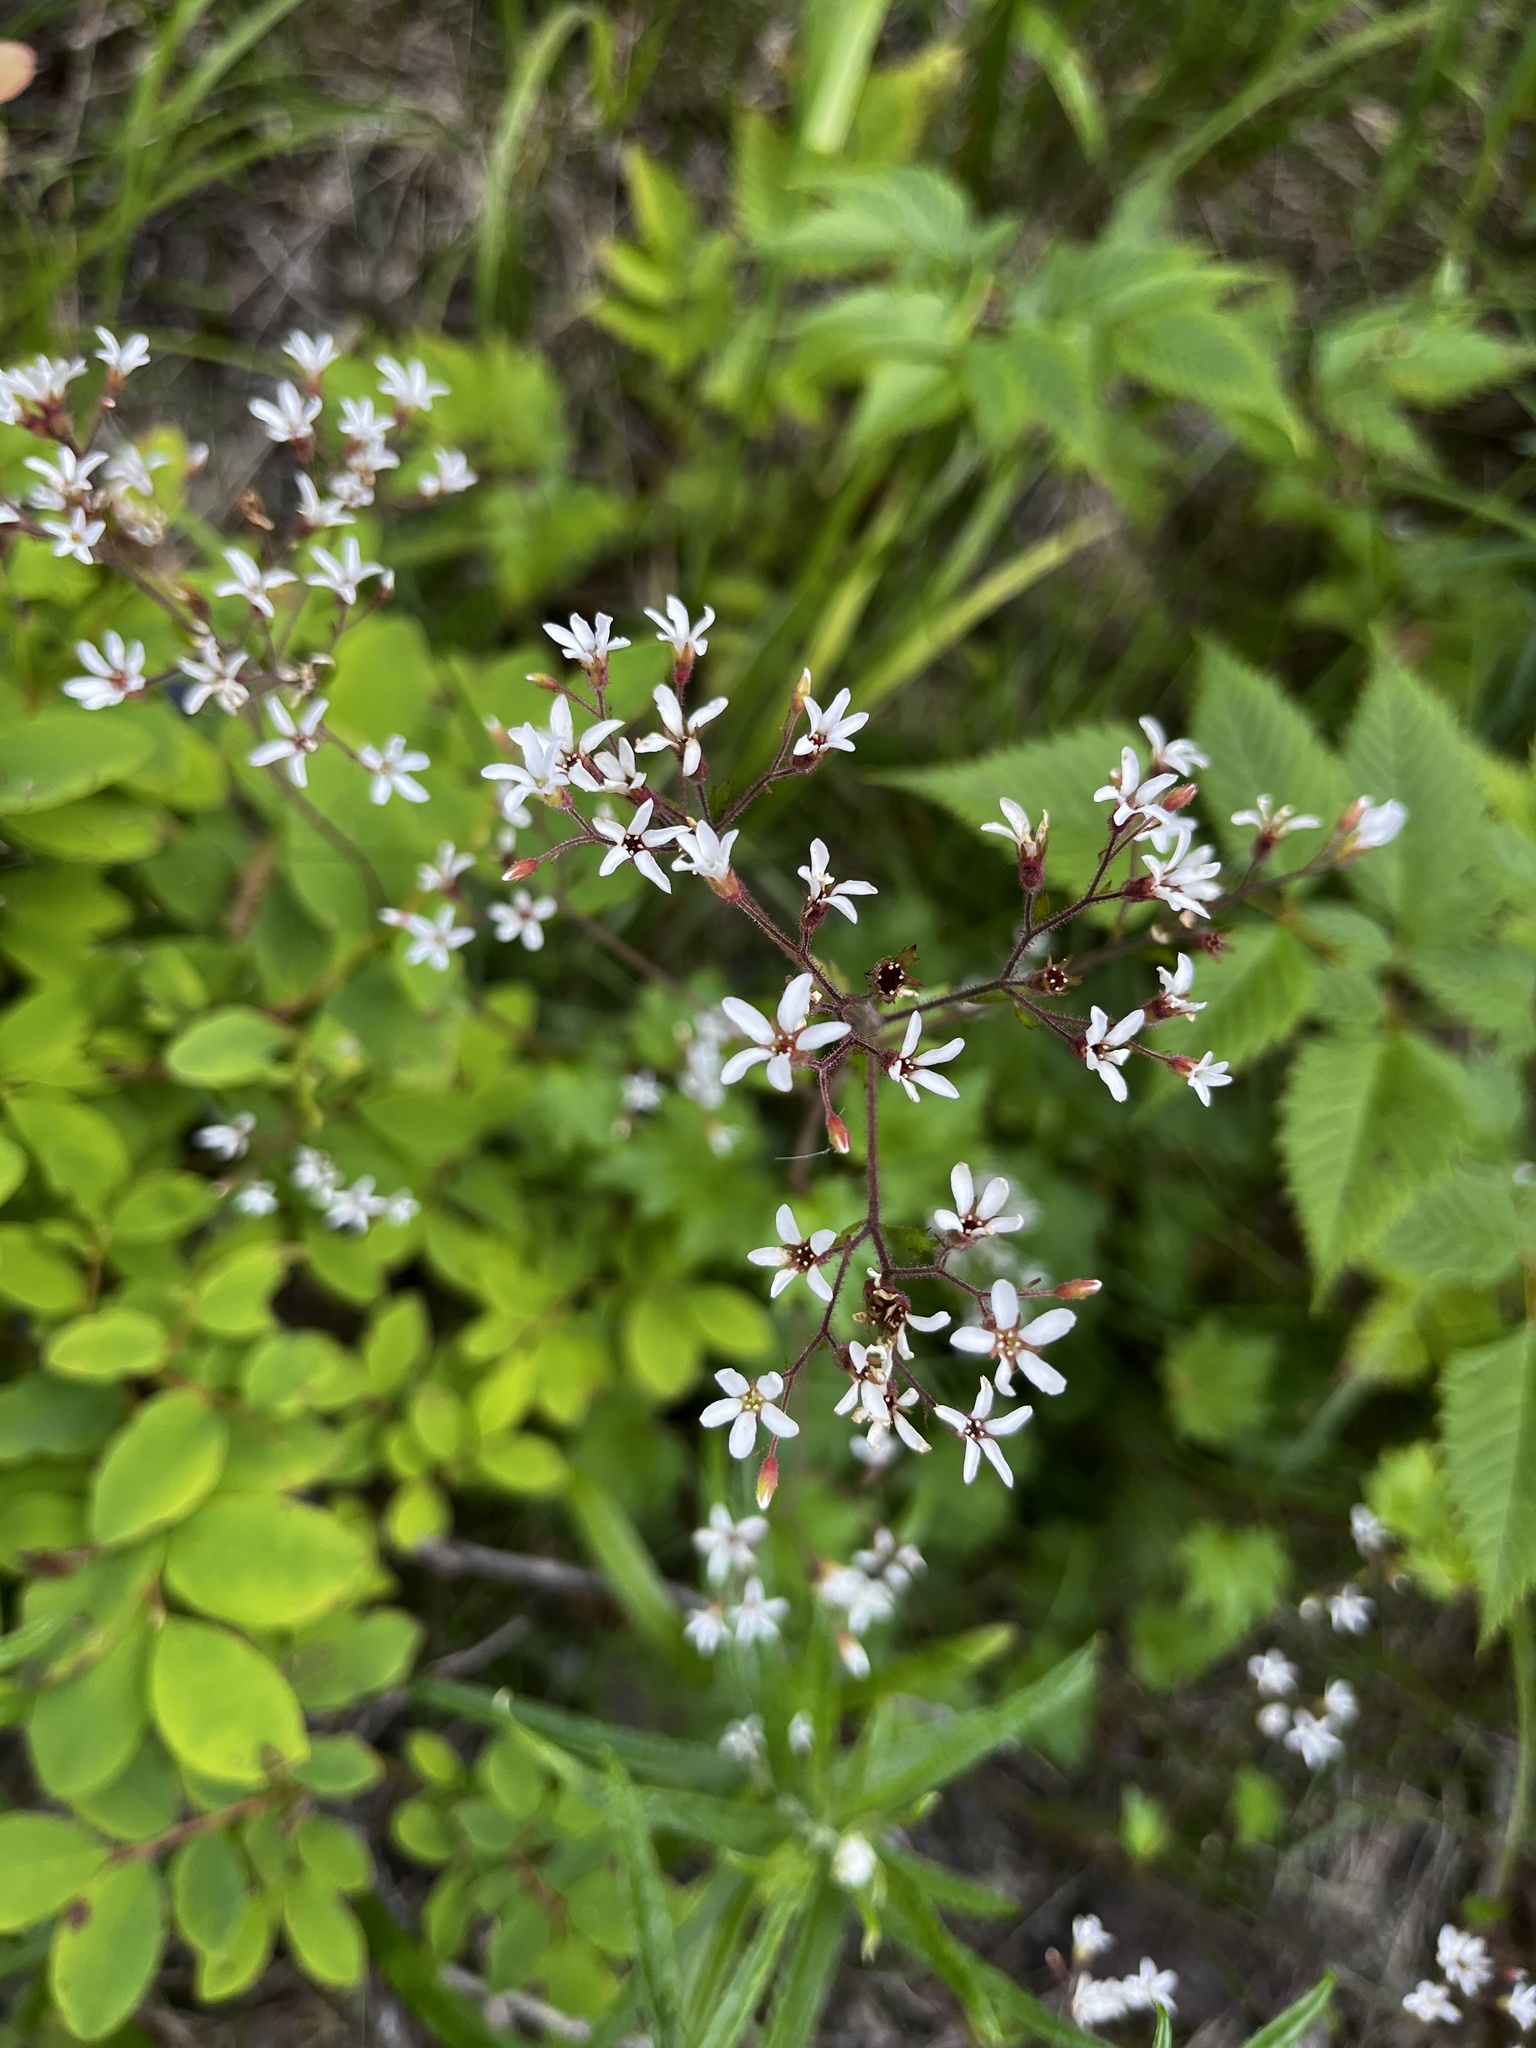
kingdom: Plantae
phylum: Tracheophyta
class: Magnoliopsida
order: Saxifragales
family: Saxifragaceae
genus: Boykinia
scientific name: Boykinia occidentalis
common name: Coast boykinia
